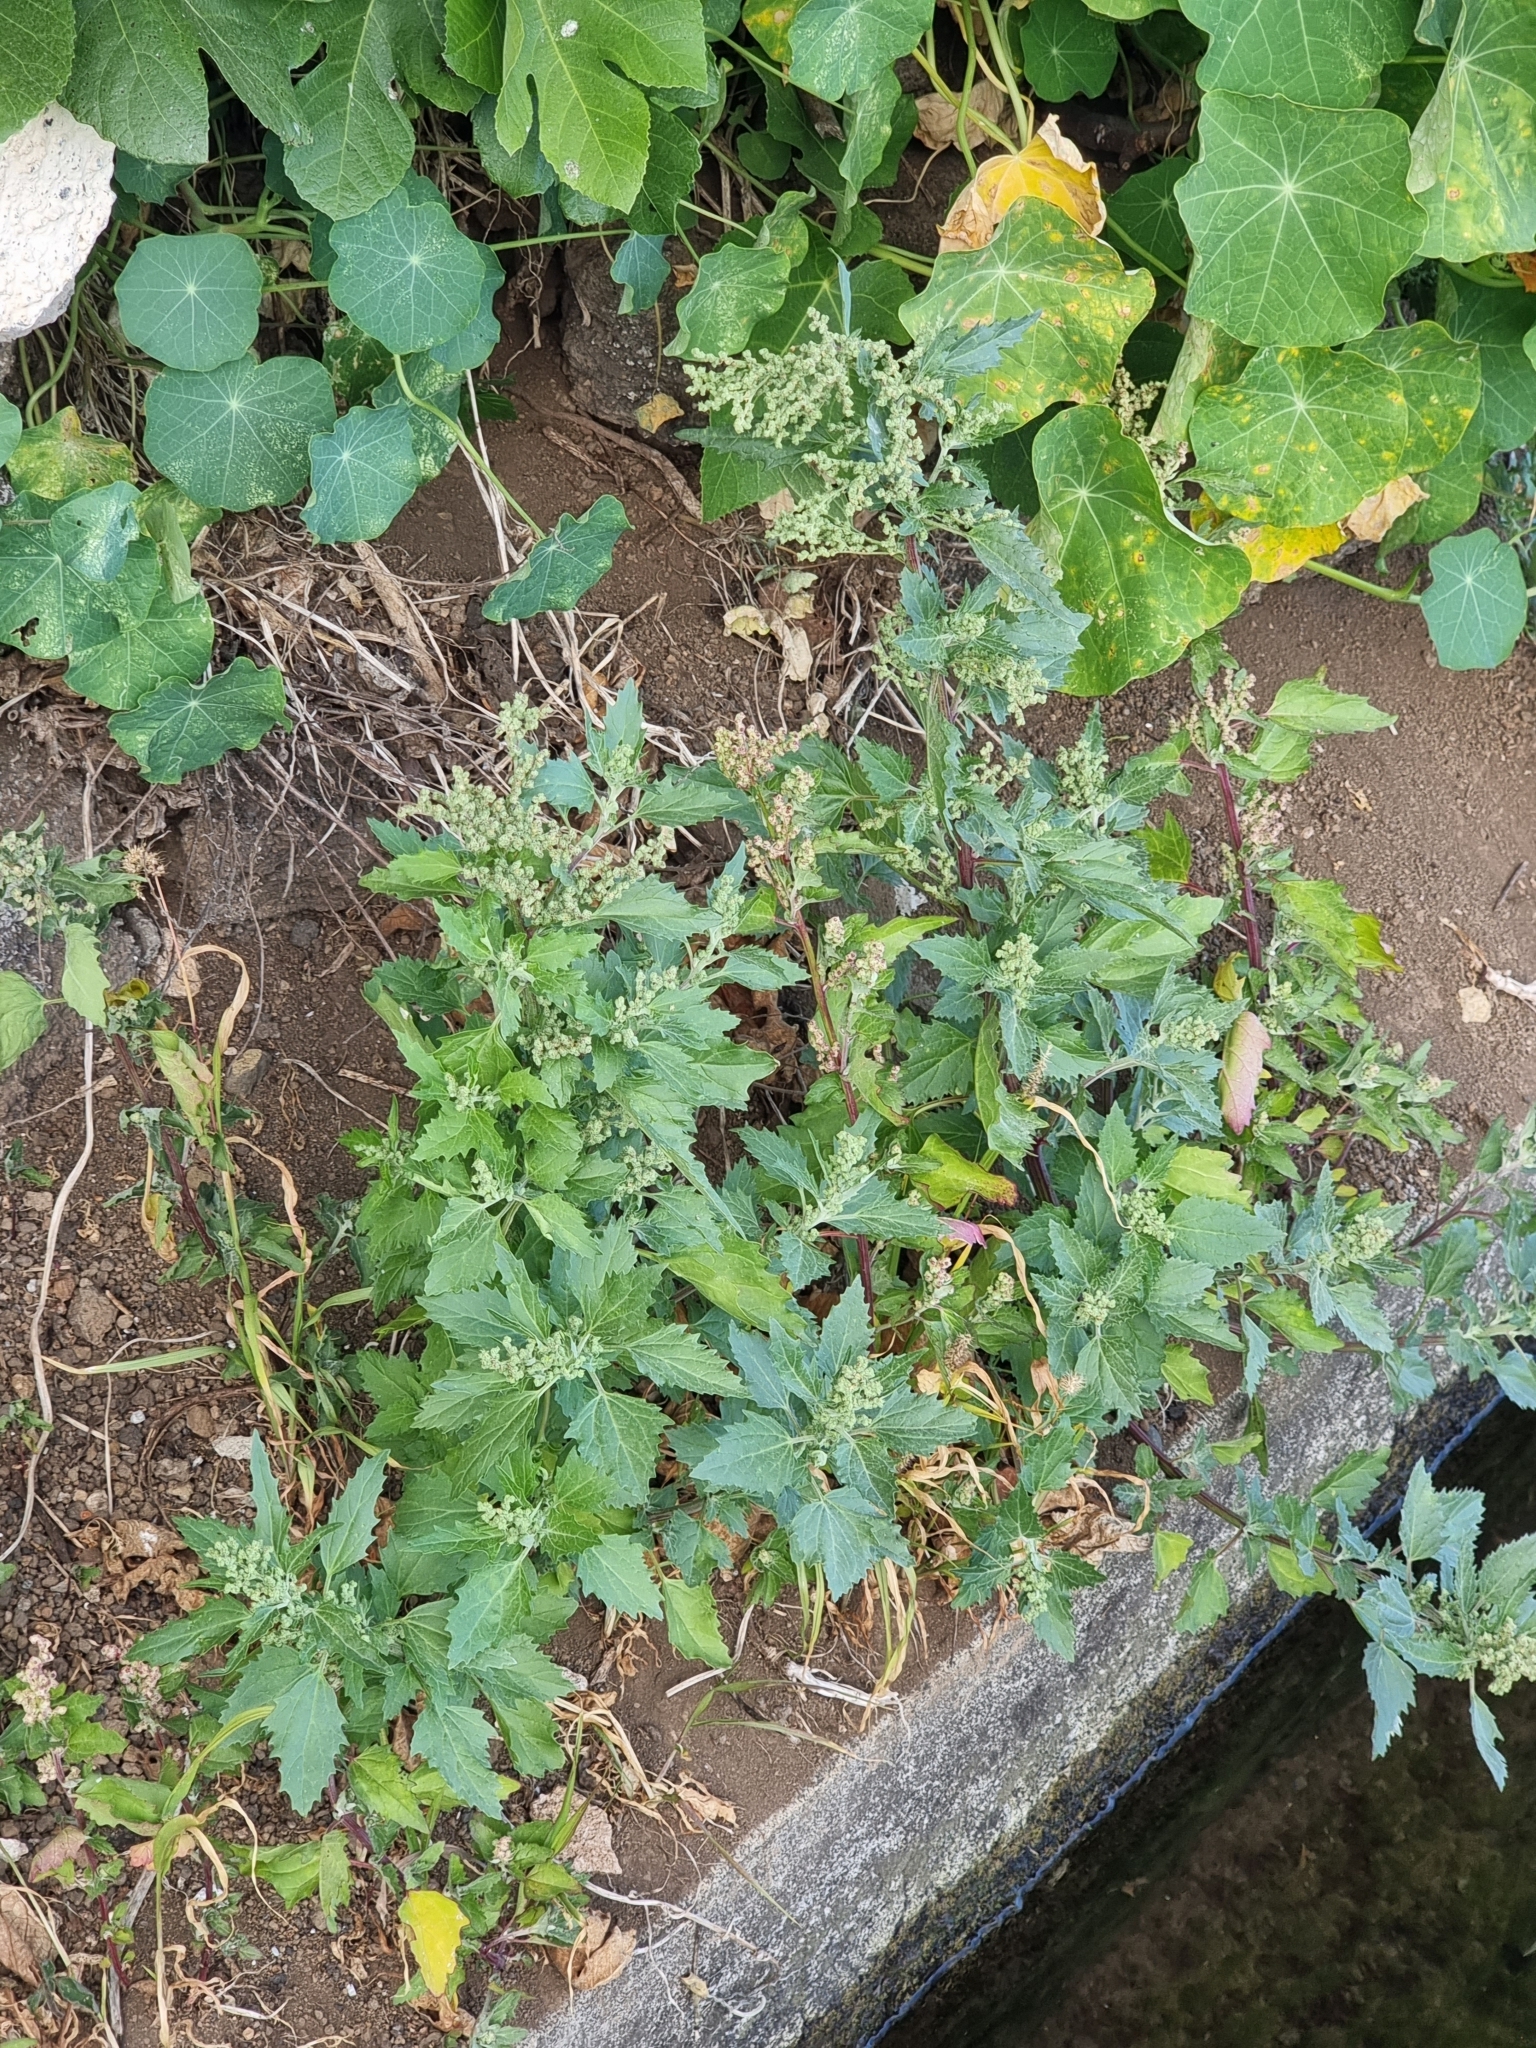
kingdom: Plantae
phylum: Tracheophyta
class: Magnoliopsida
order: Caryophyllales
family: Amaranthaceae
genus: Chenopodiastrum
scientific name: Chenopodiastrum murale
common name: Sowbane
